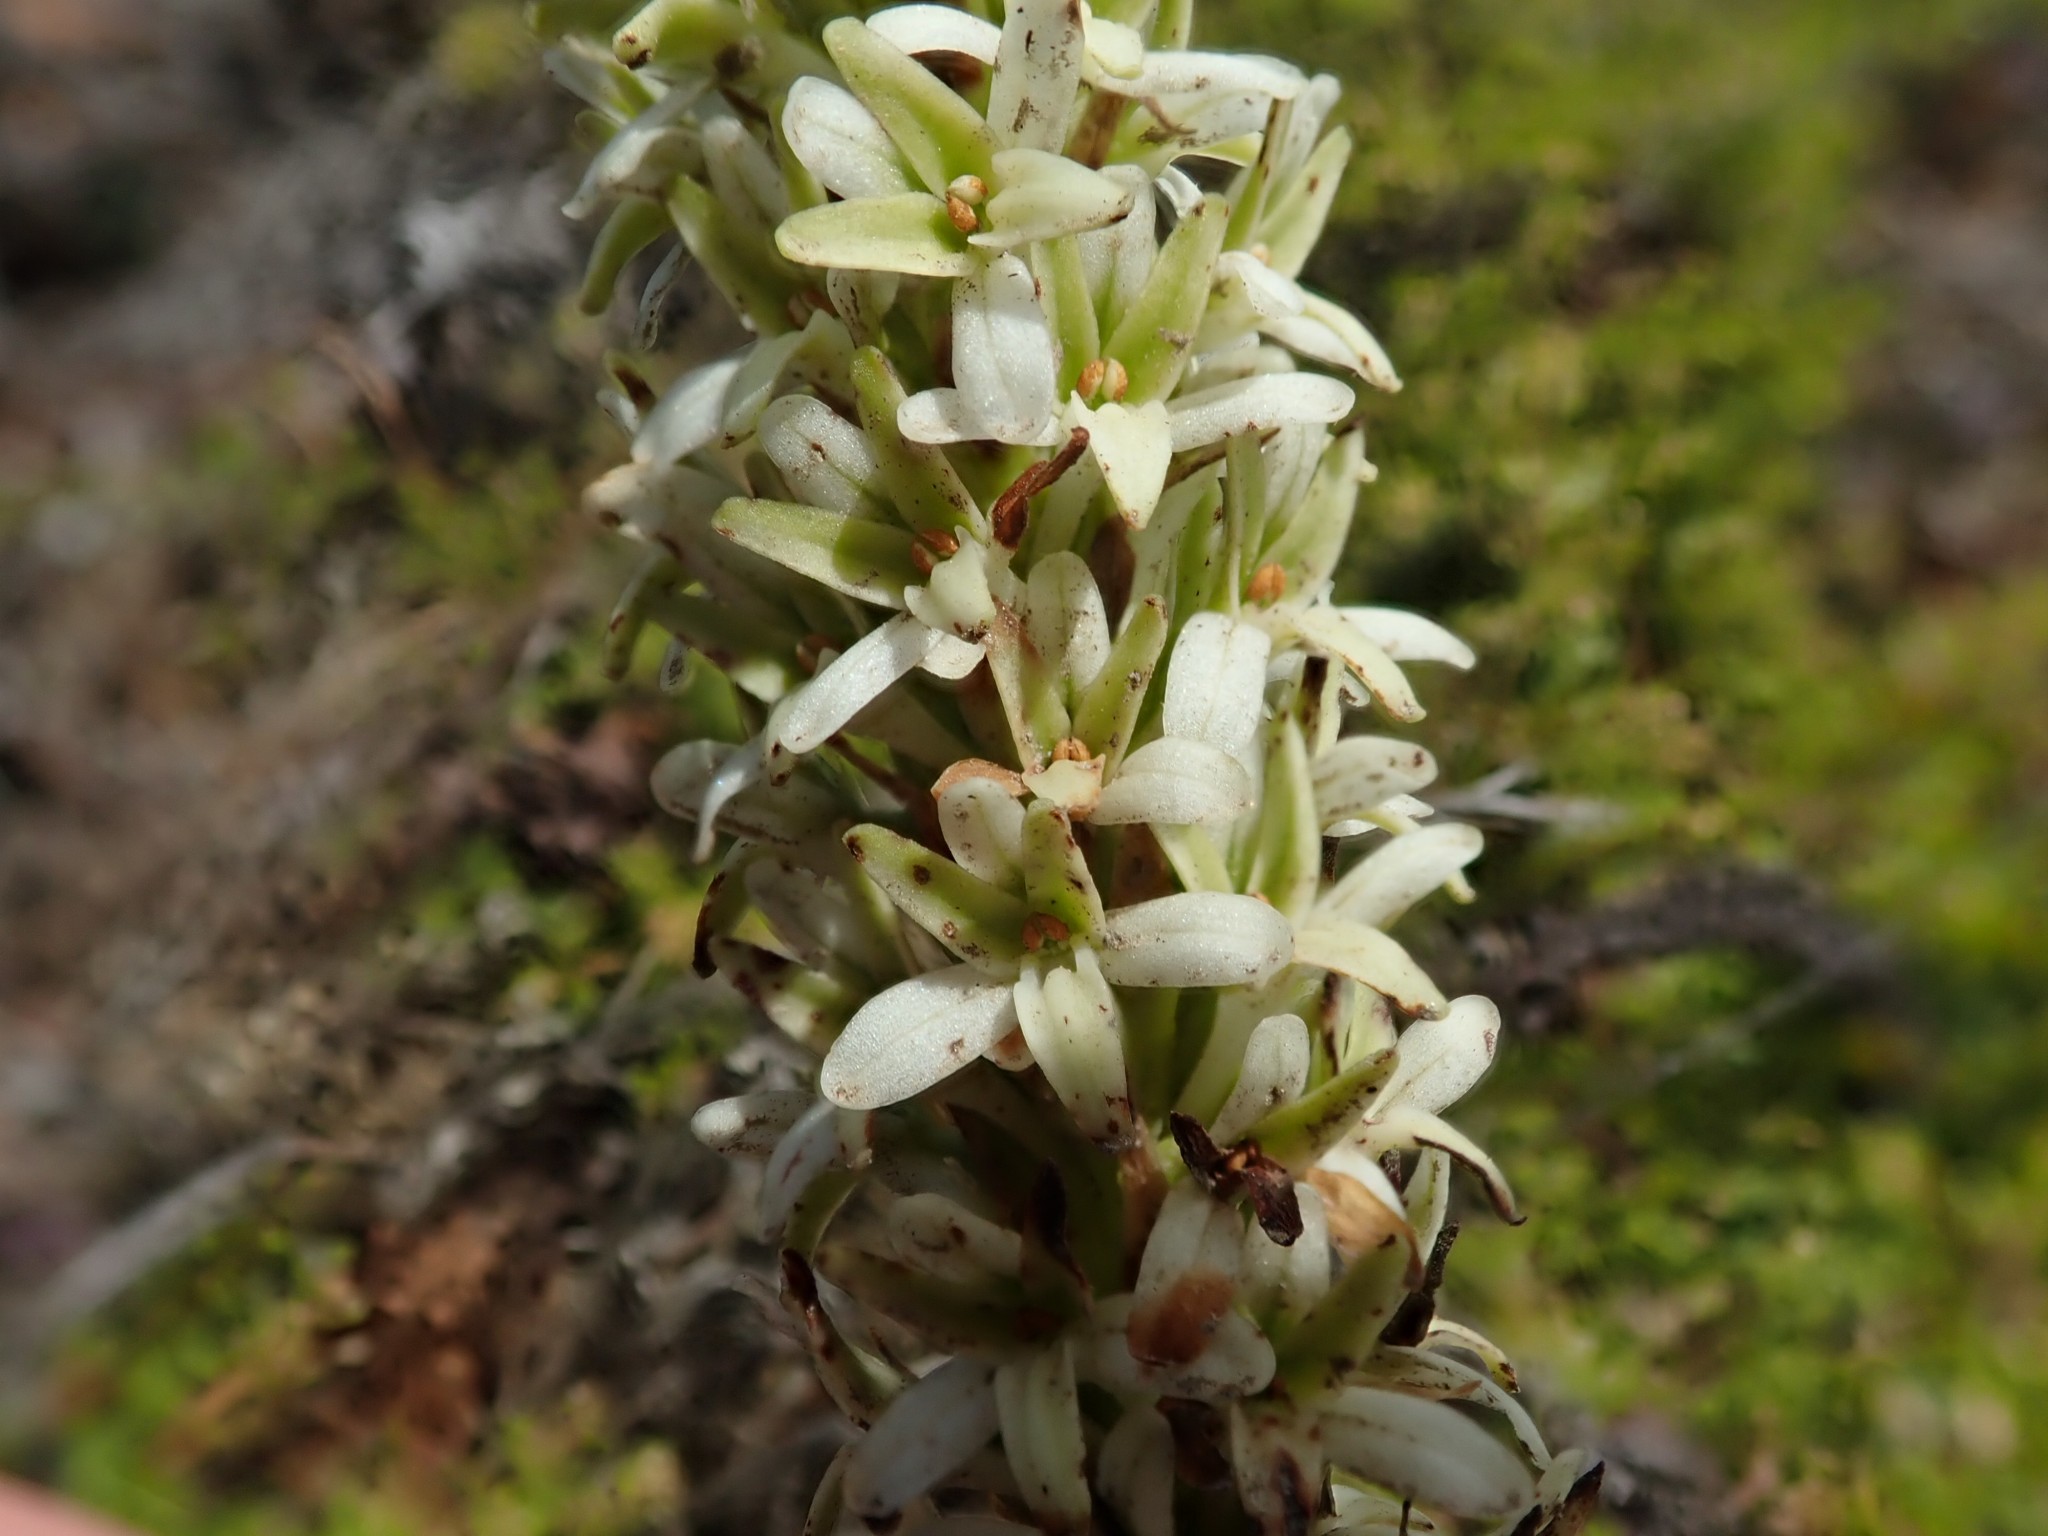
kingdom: Plantae
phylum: Tracheophyta
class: Liliopsida
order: Asparagales
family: Orchidaceae
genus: Platanthera
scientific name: Platanthera elegans
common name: Coast piperia
